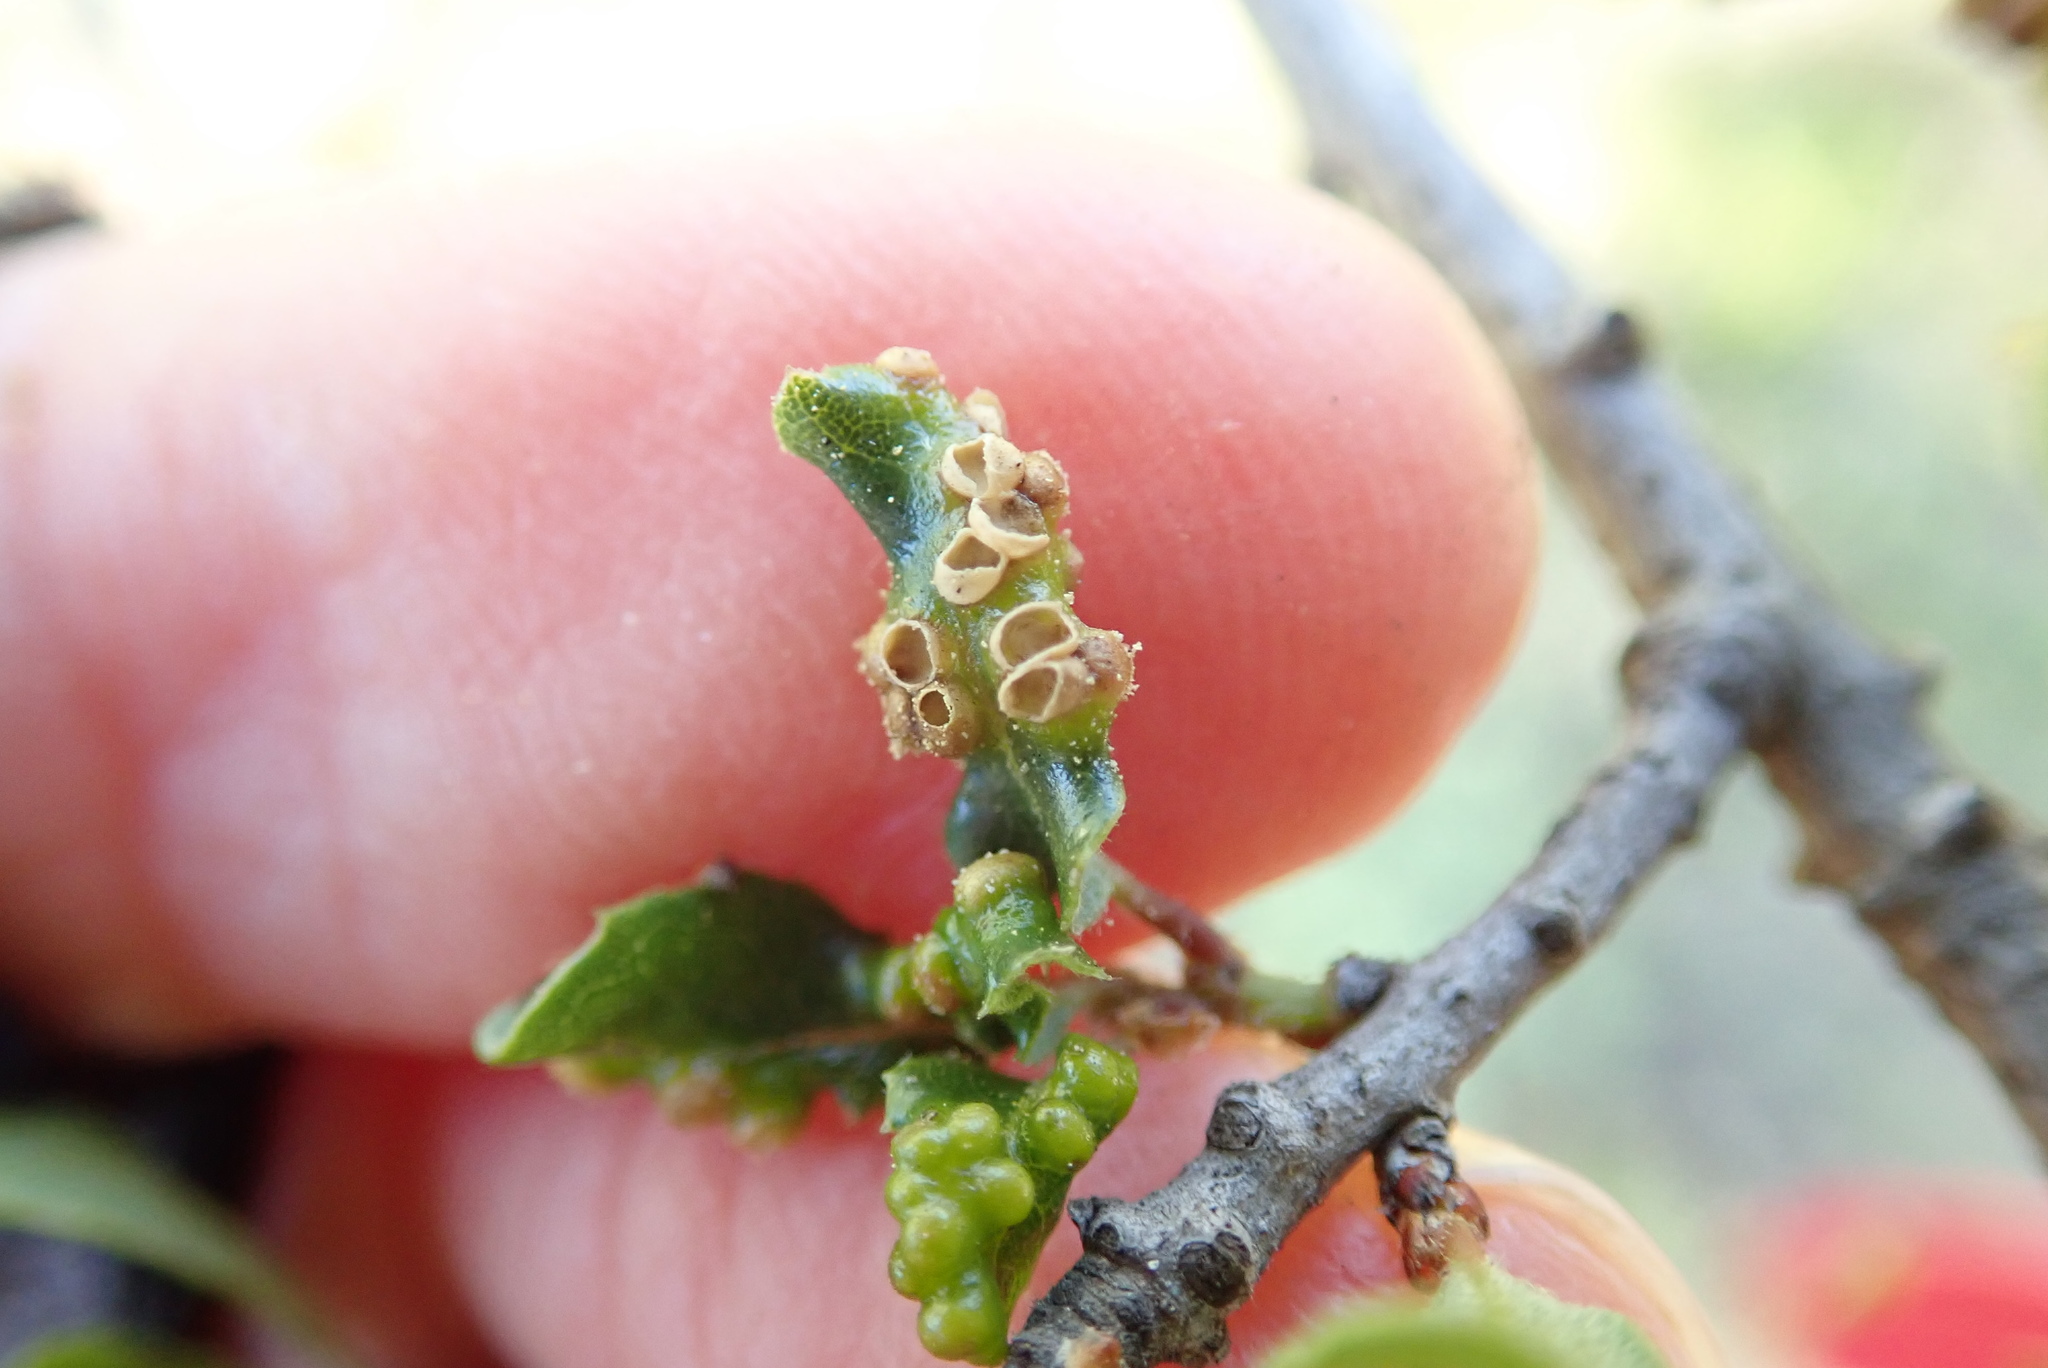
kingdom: Animalia
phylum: Arthropoda
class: Insecta
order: Hymenoptera
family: Cynipidae
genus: Neuroterus
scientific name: Neuroterus saltarius
